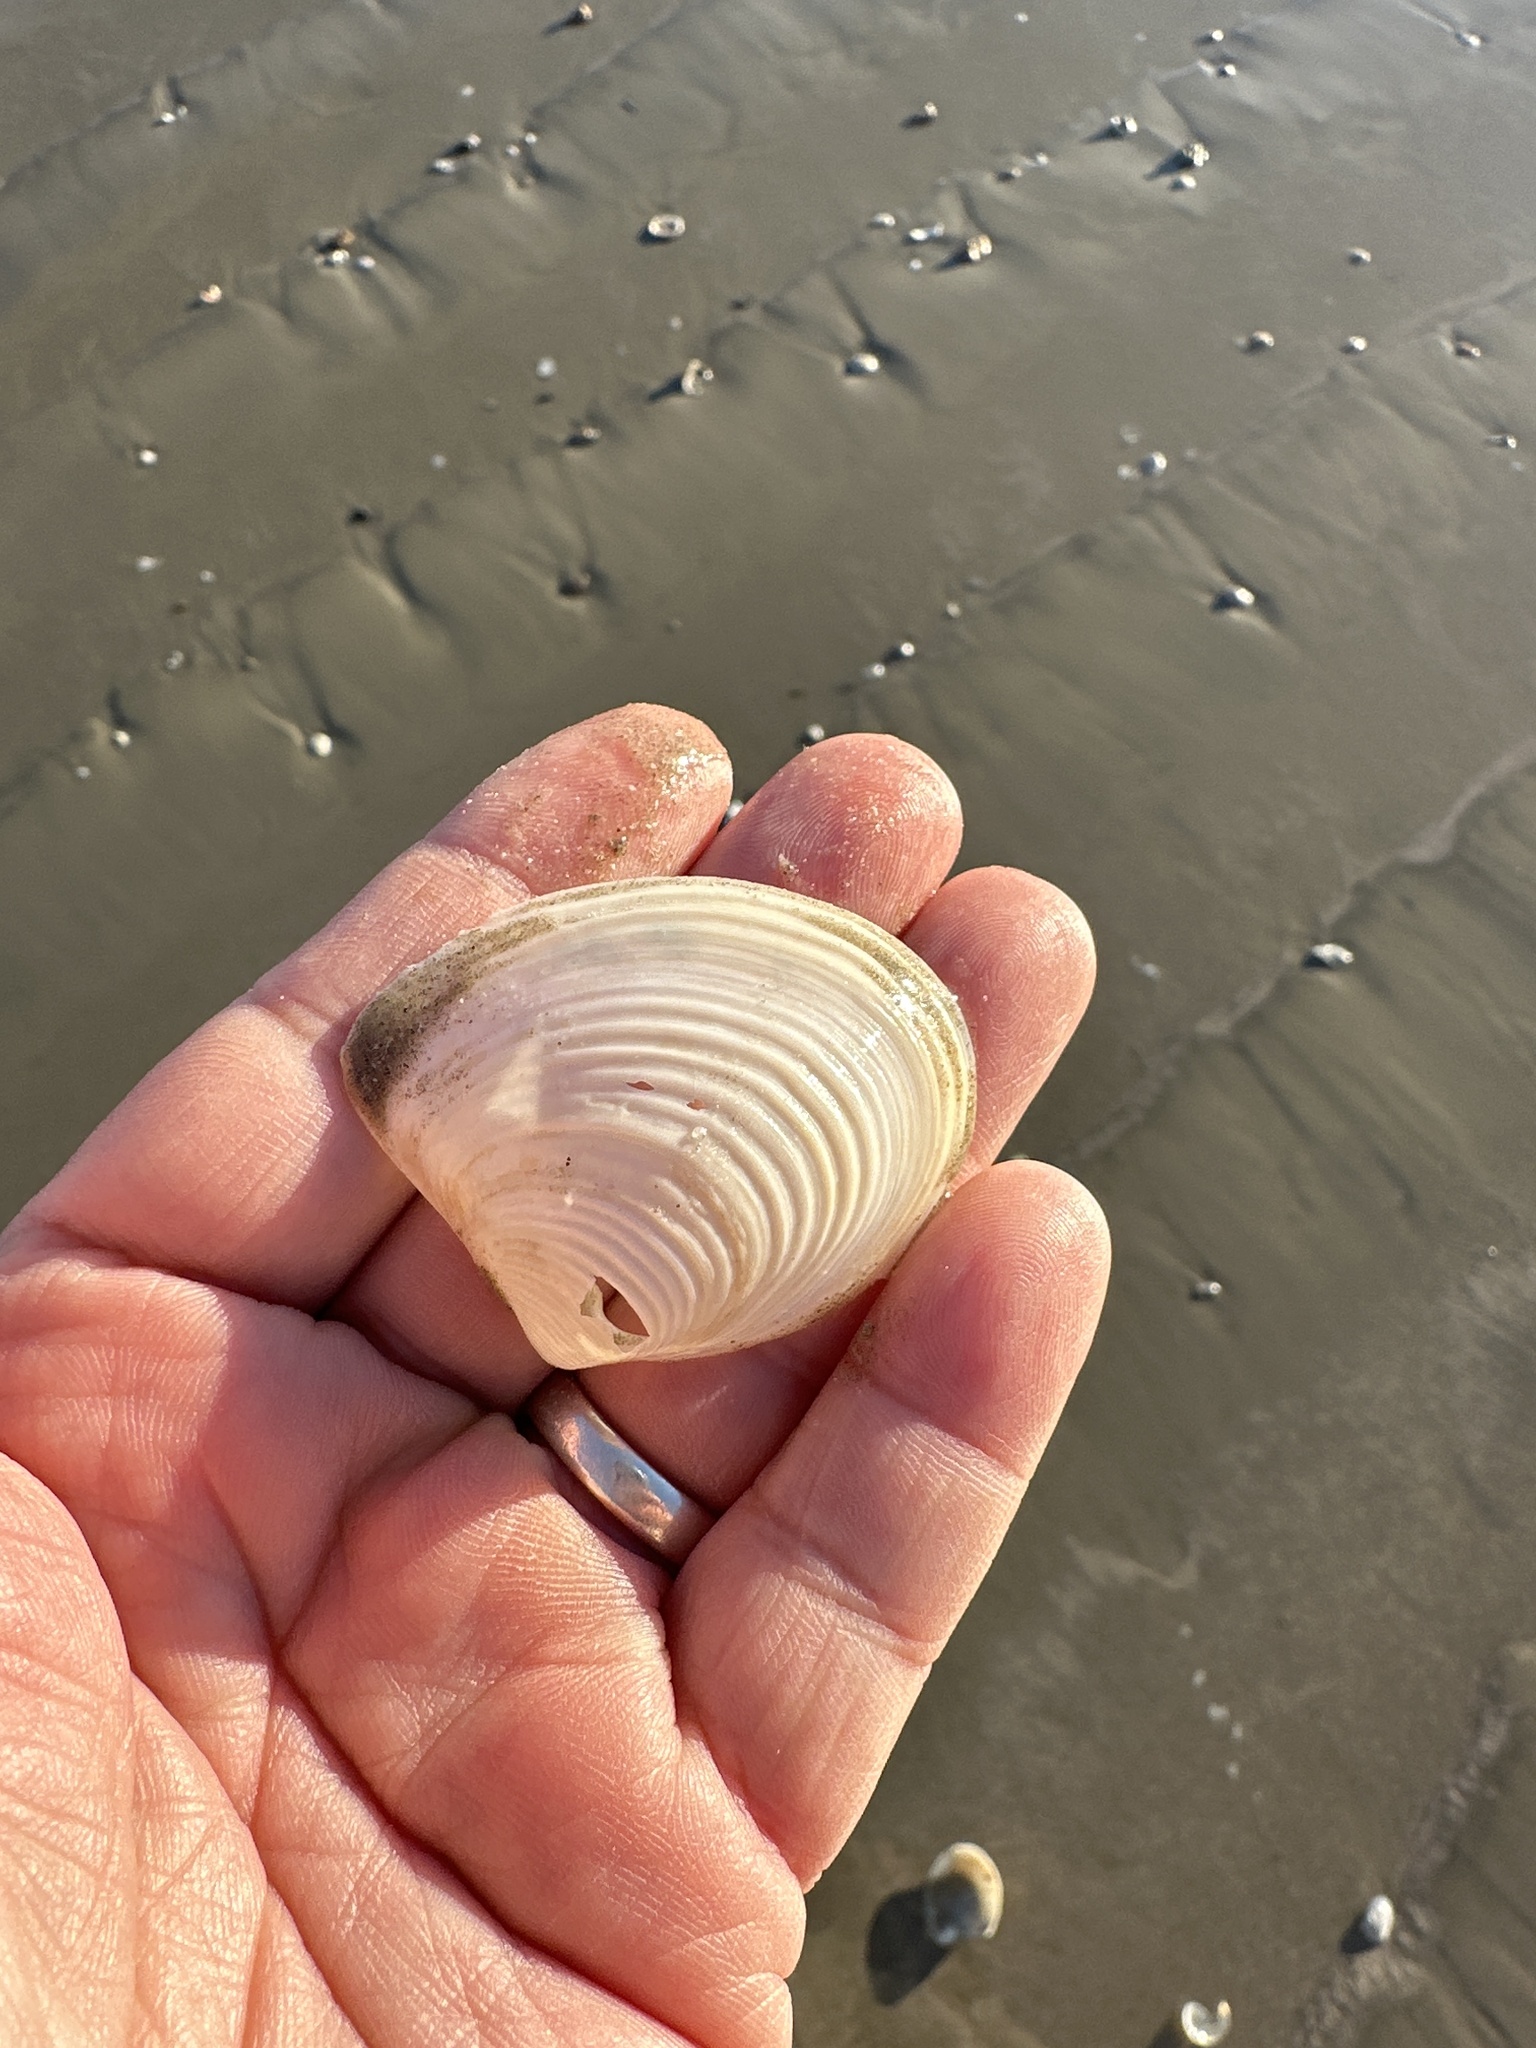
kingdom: Animalia
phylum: Mollusca
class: Bivalvia
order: Venerida
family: Anatinellidae
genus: Raeta
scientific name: Raeta plicatella
